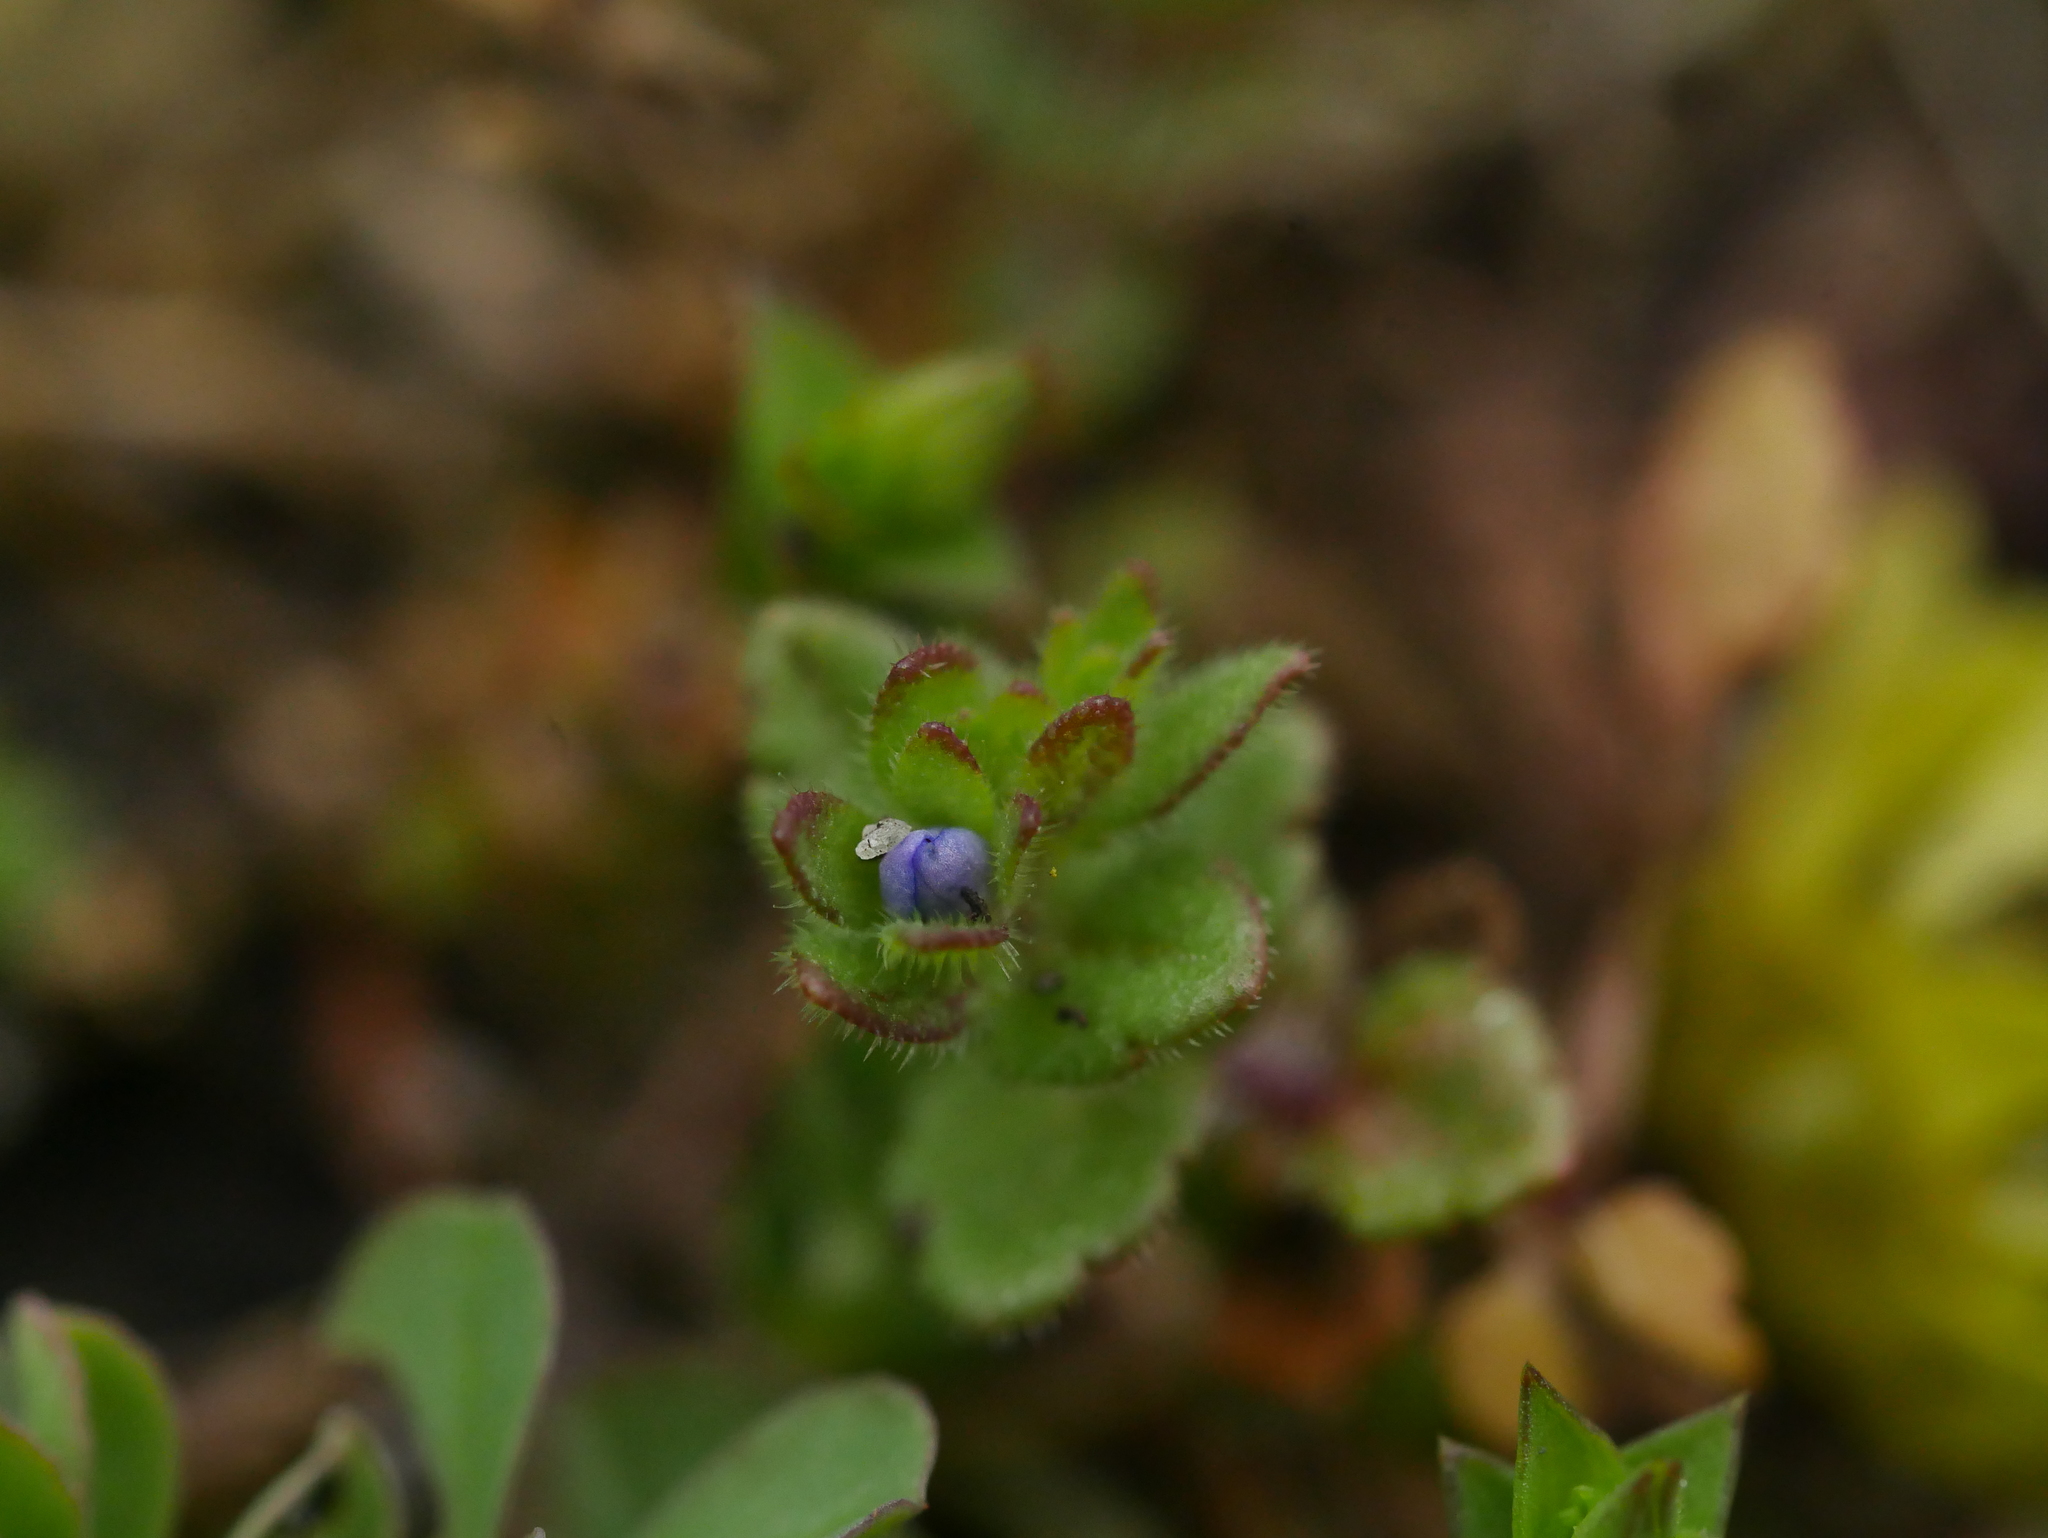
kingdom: Plantae
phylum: Tracheophyta
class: Magnoliopsida
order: Lamiales
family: Plantaginaceae
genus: Veronica
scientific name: Veronica arvensis
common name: Corn speedwell
